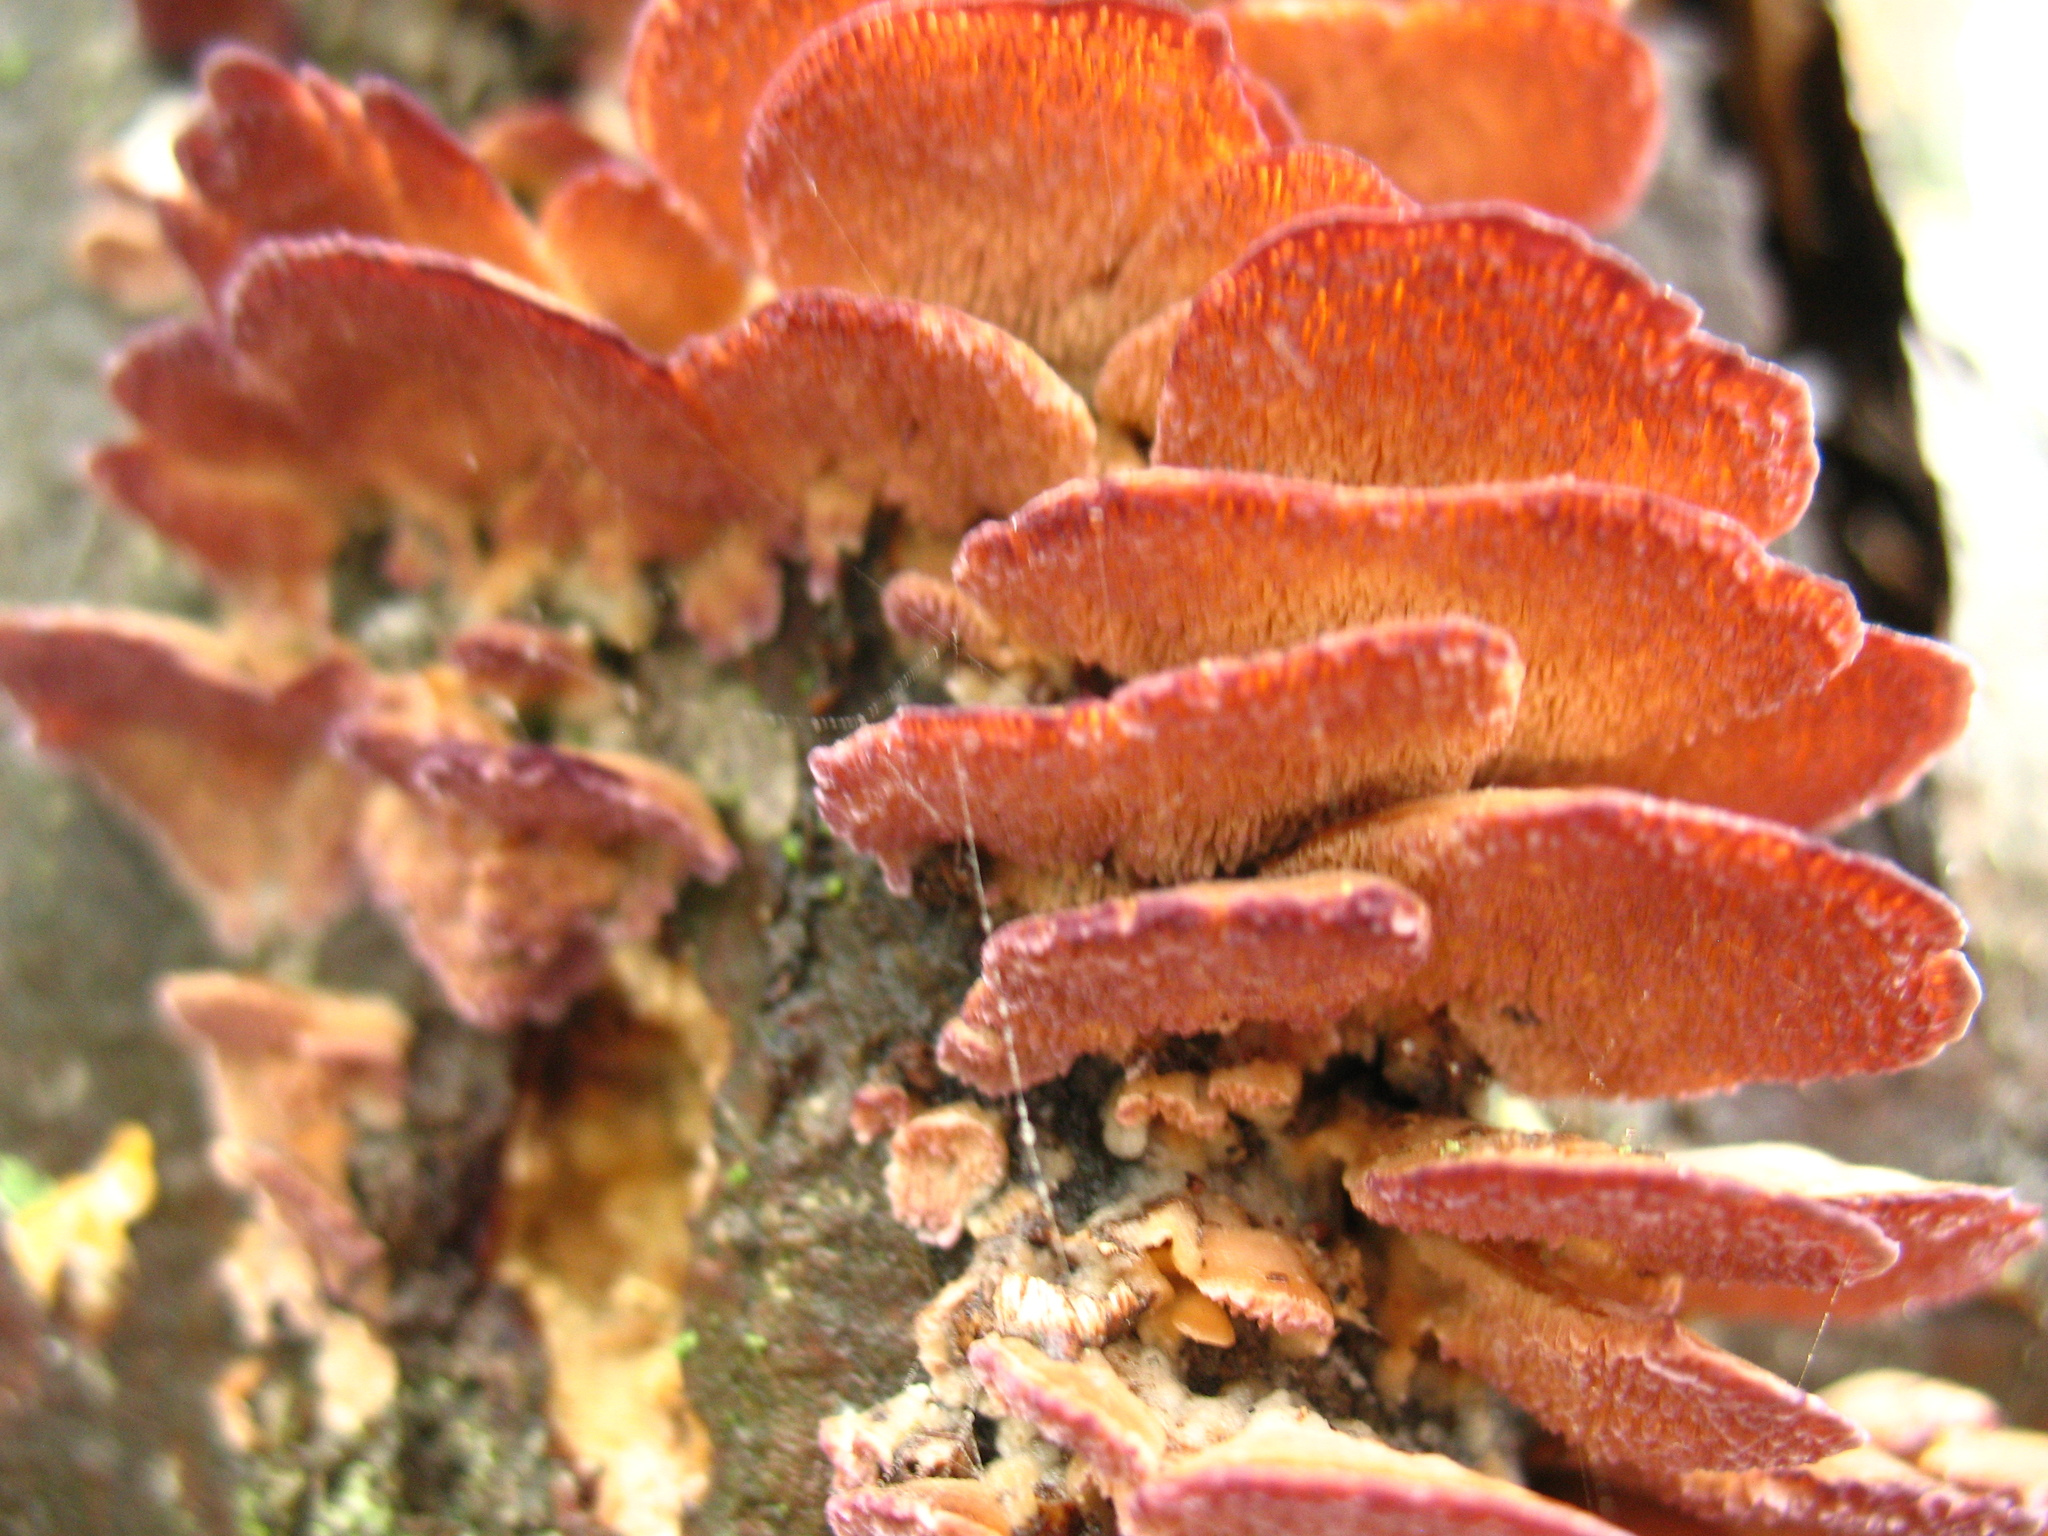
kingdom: Fungi
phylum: Basidiomycota
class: Agaricomycetes
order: Hymenochaetales
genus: Trichaptum
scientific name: Trichaptum biforme
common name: Violet-toothed polypore
